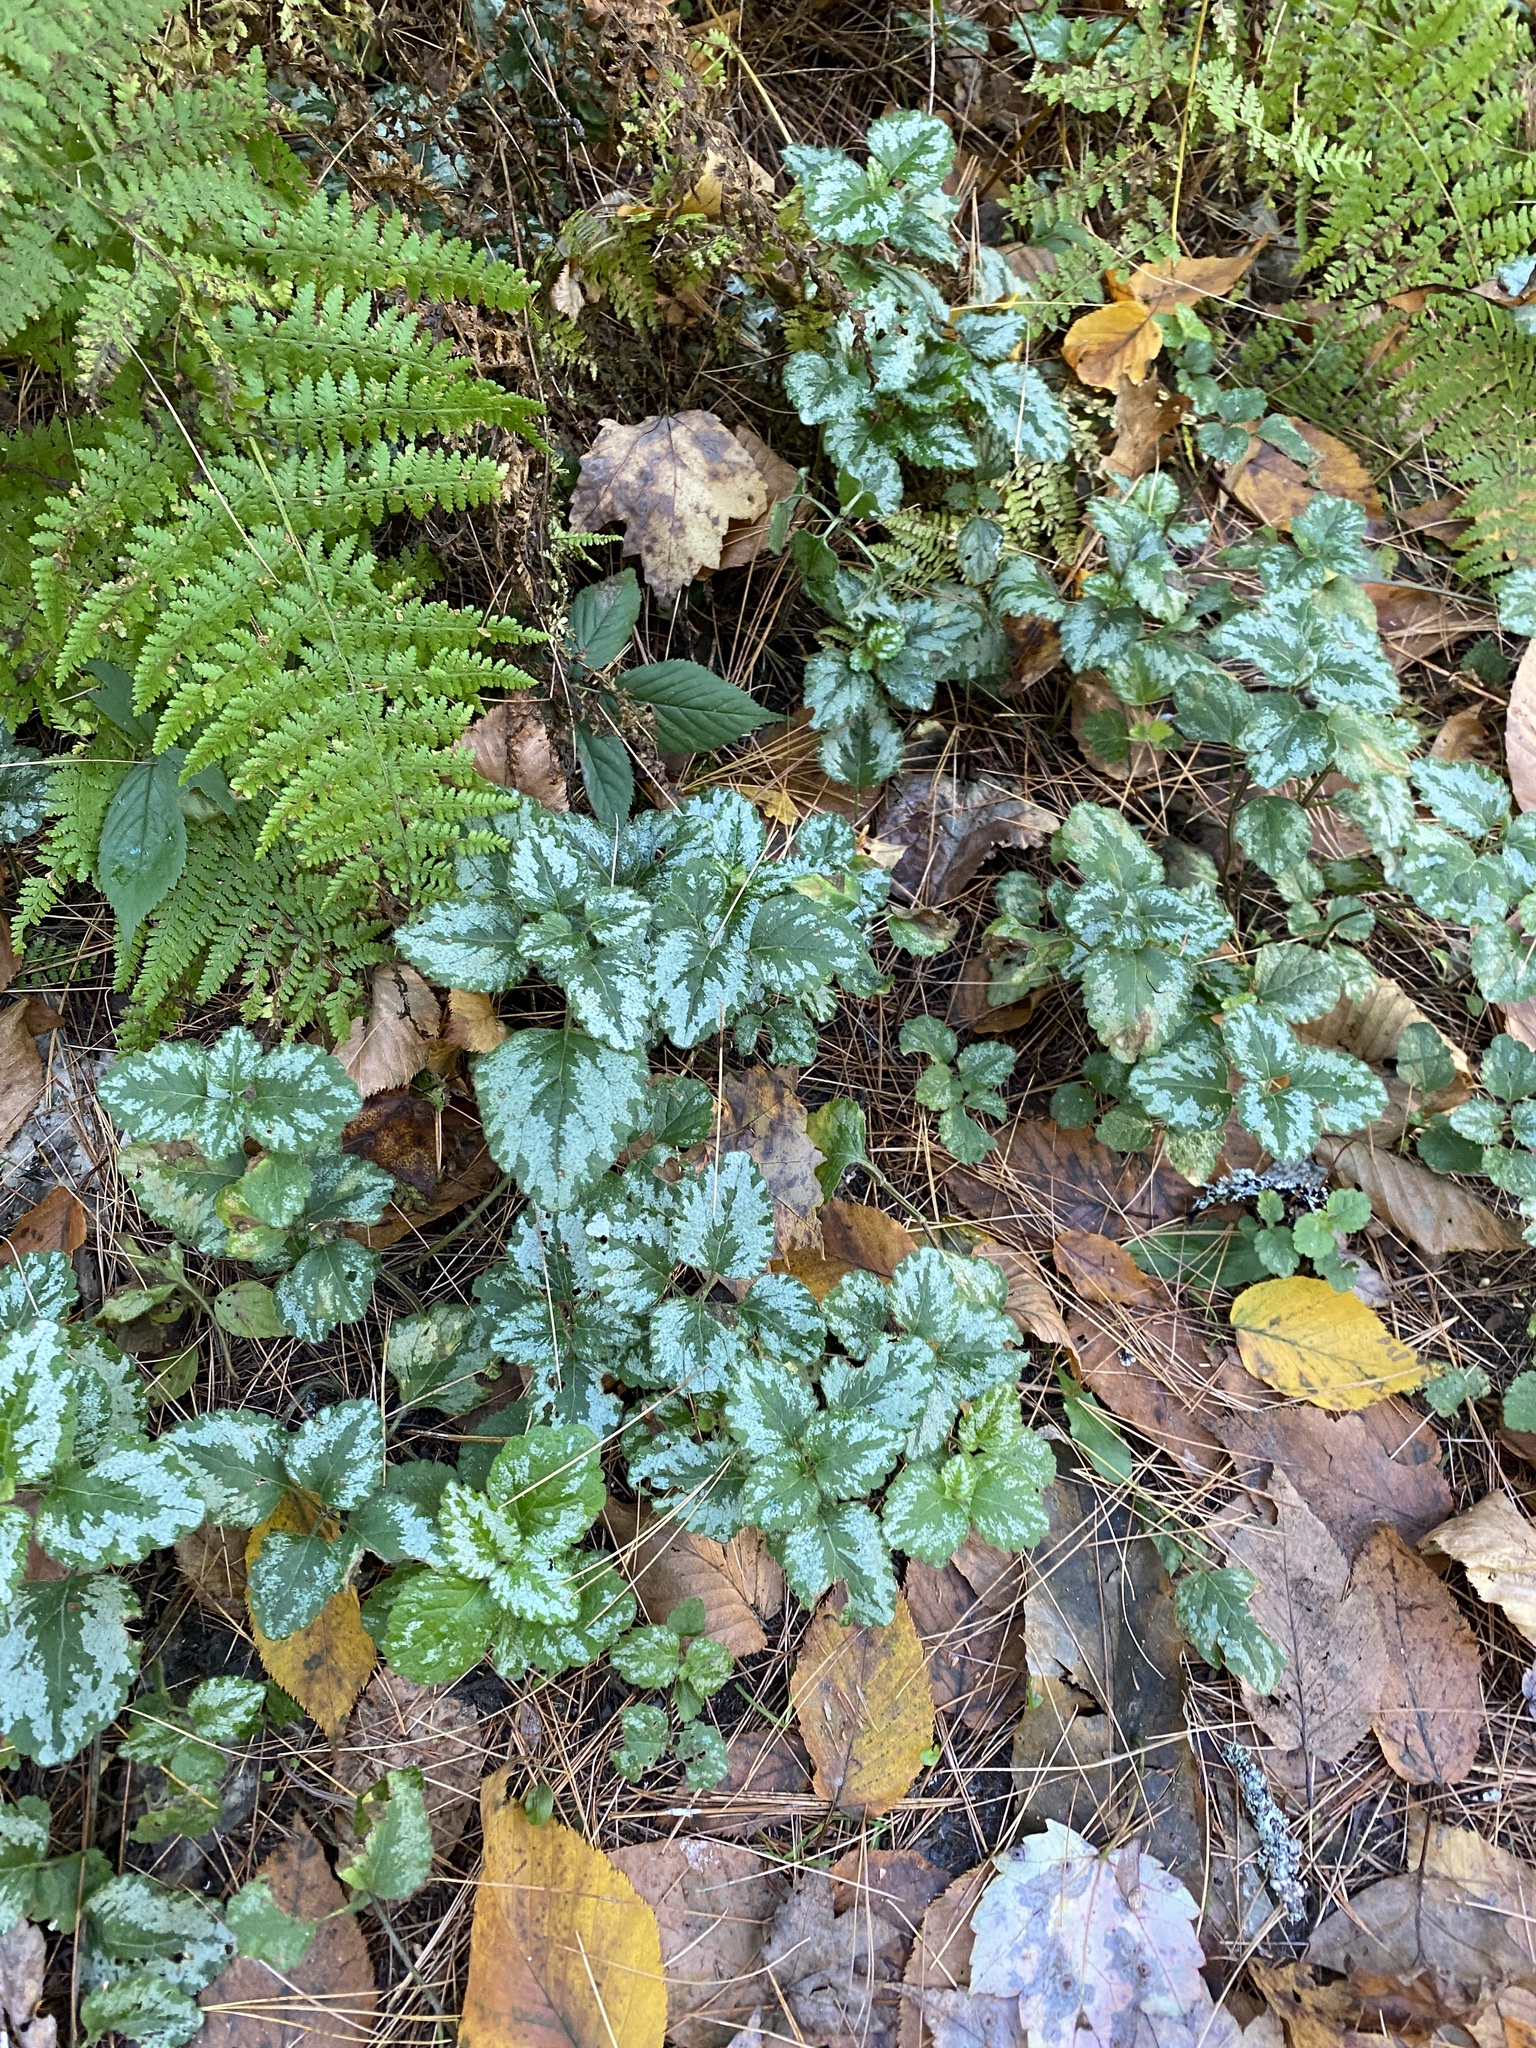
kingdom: Plantae
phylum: Tracheophyta
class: Magnoliopsida
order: Lamiales
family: Lamiaceae
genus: Lamium
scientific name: Lamium galeobdolon
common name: Yellow archangel
